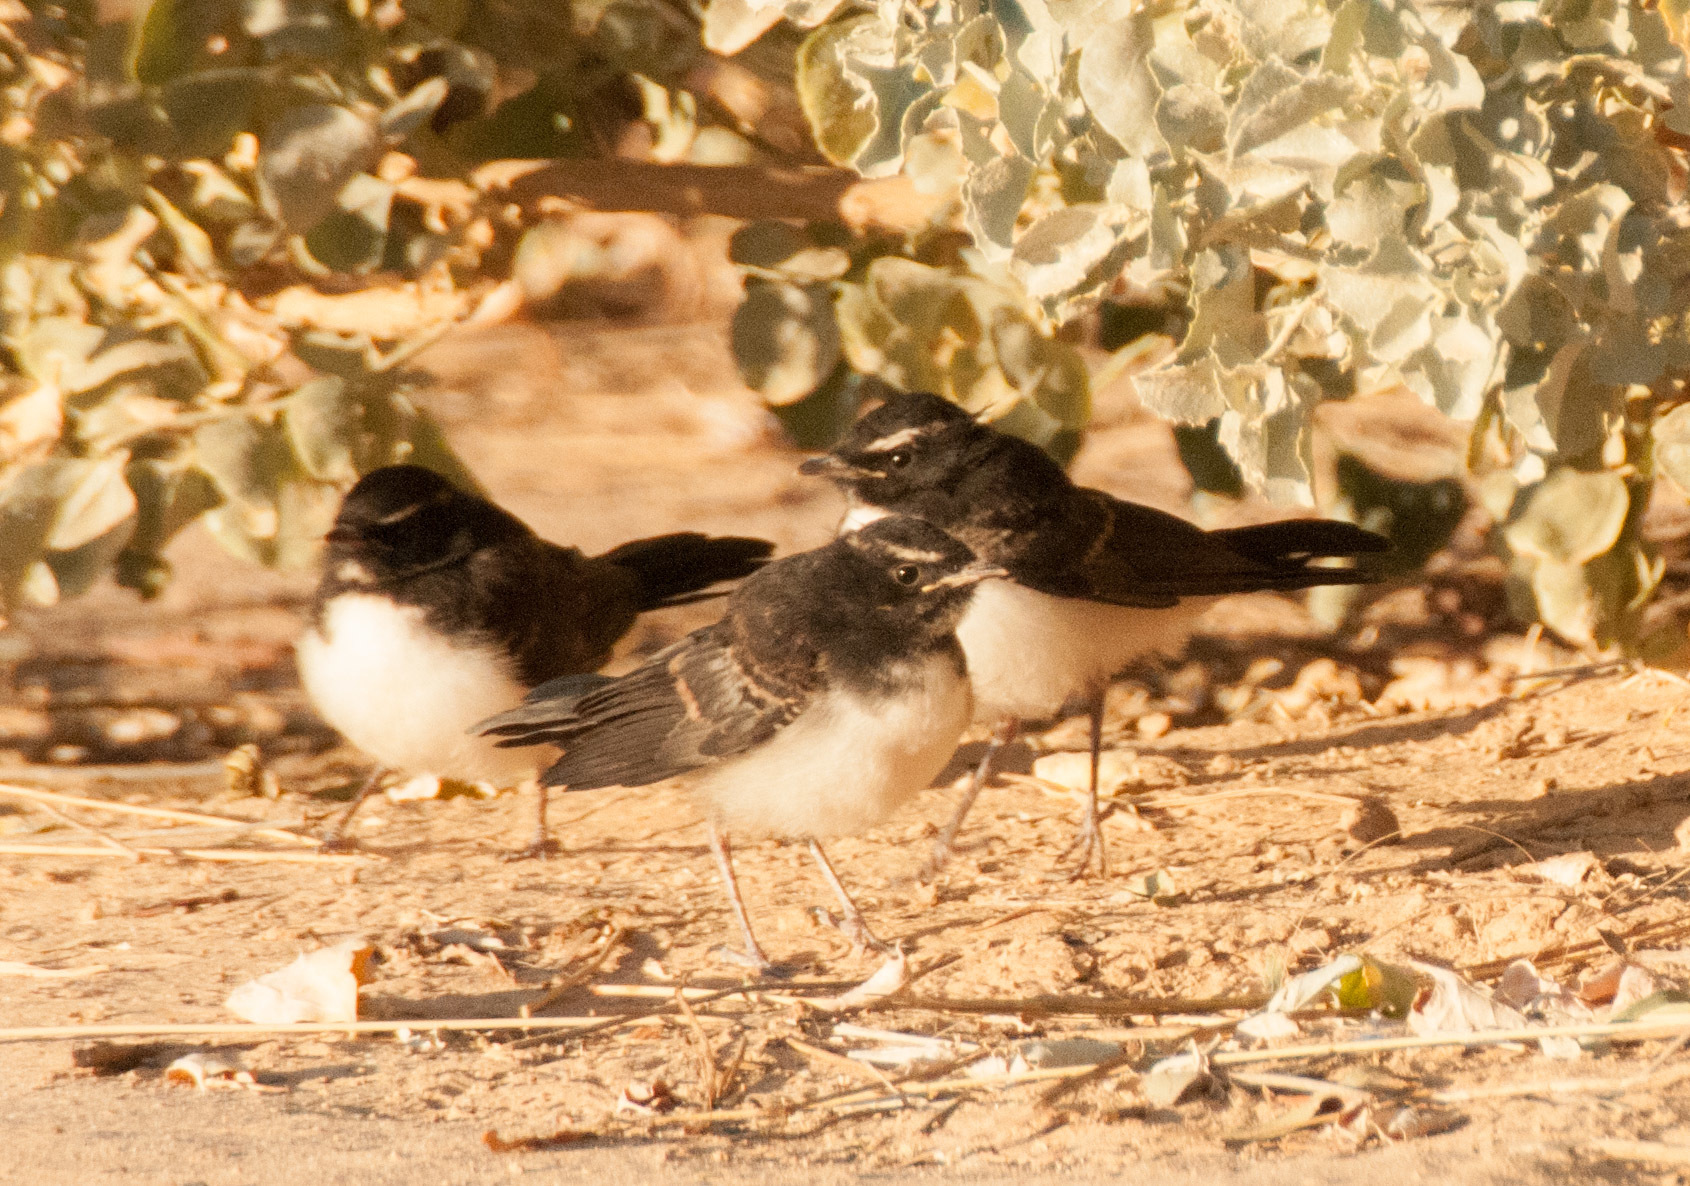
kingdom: Animalia
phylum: Chordata
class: Aves
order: Passeriformes
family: Rhipiduridae
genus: Rhipidura
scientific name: Rhipidura leucophrys
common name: Willie wagtail
